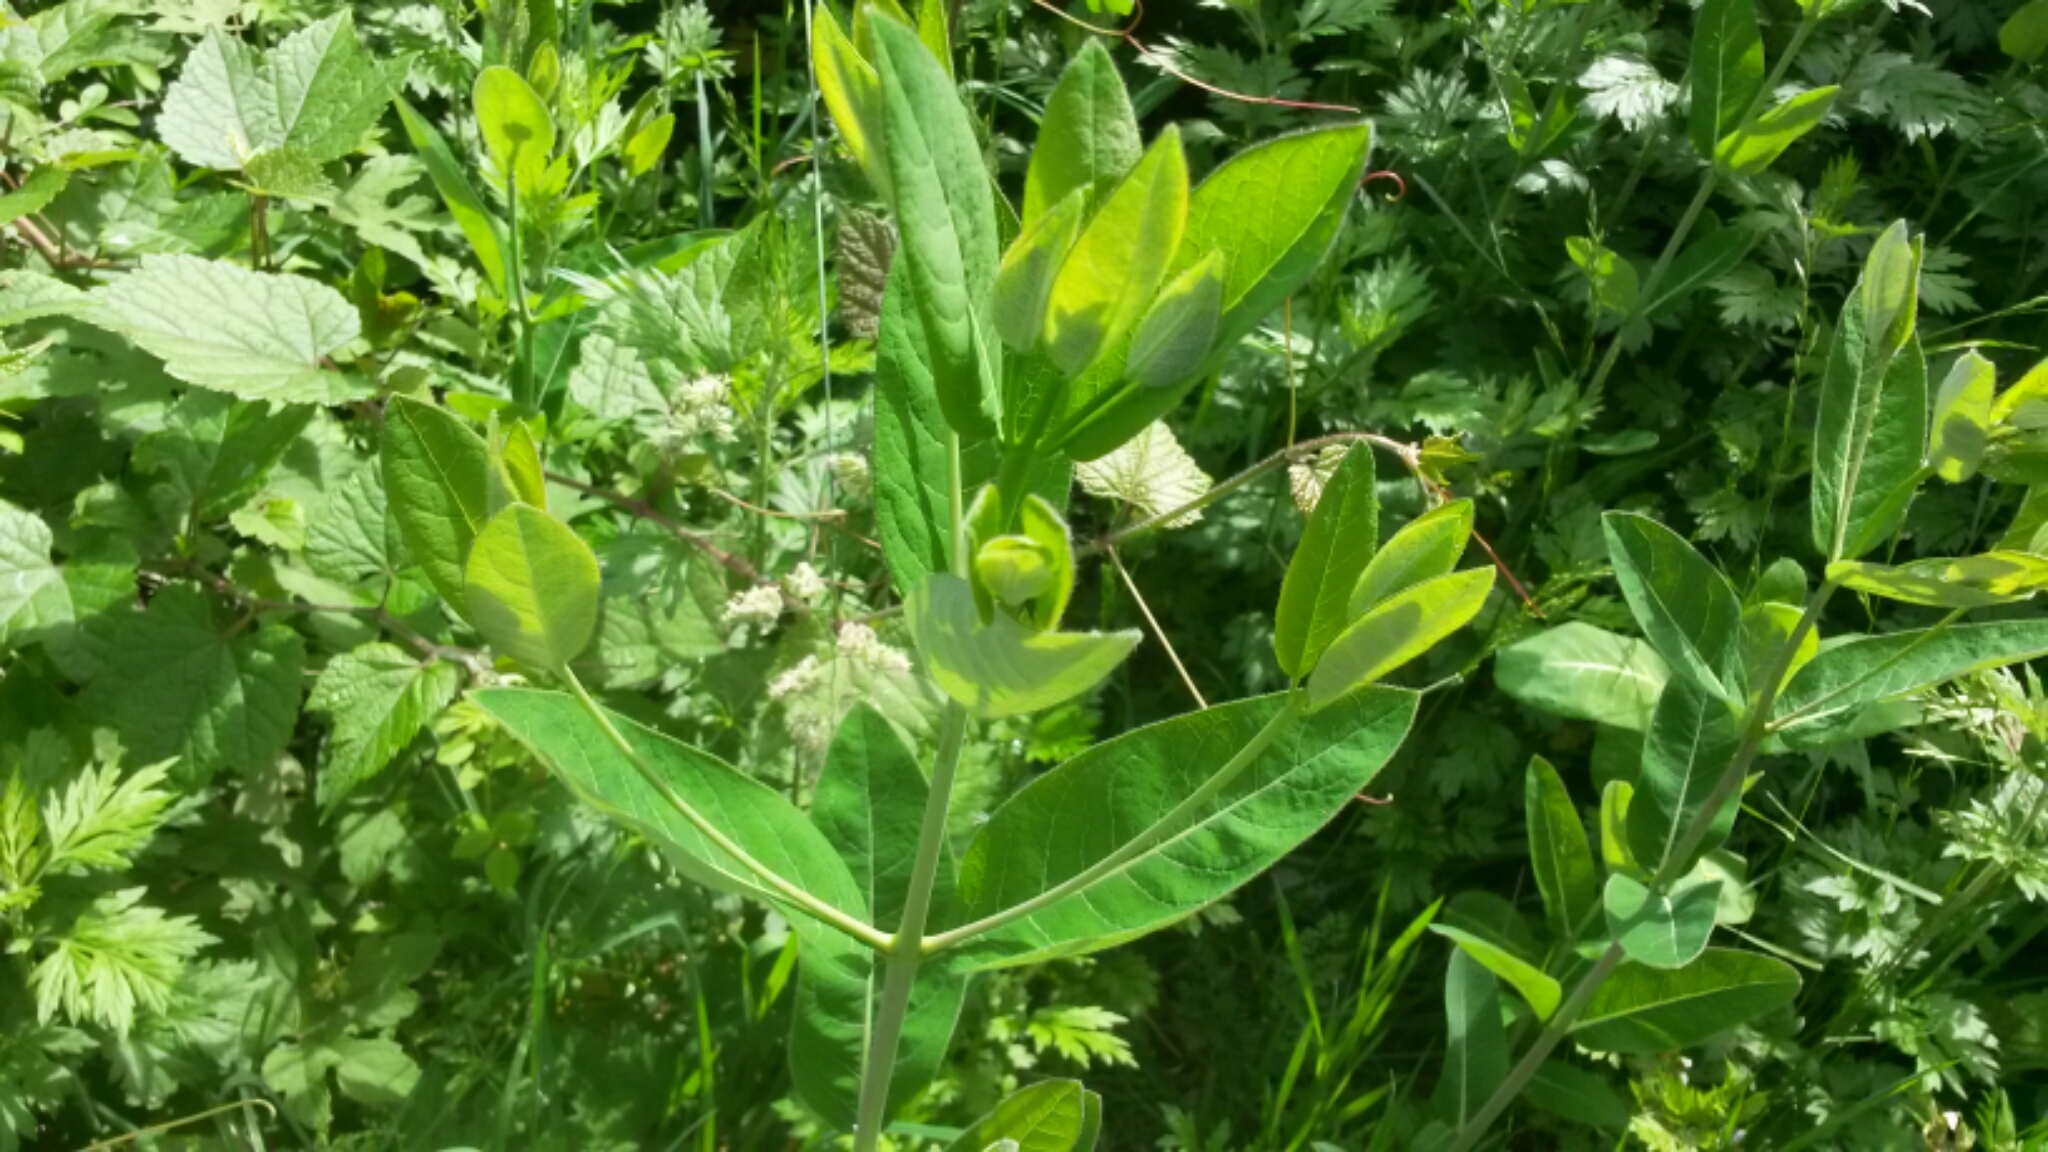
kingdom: Plantae
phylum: Tracheophyta
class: Magnoliopsida
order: Gentianales
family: Apocynaceae
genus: Apocynum
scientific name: Apocynum cannabinum
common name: Hemp dogbane
